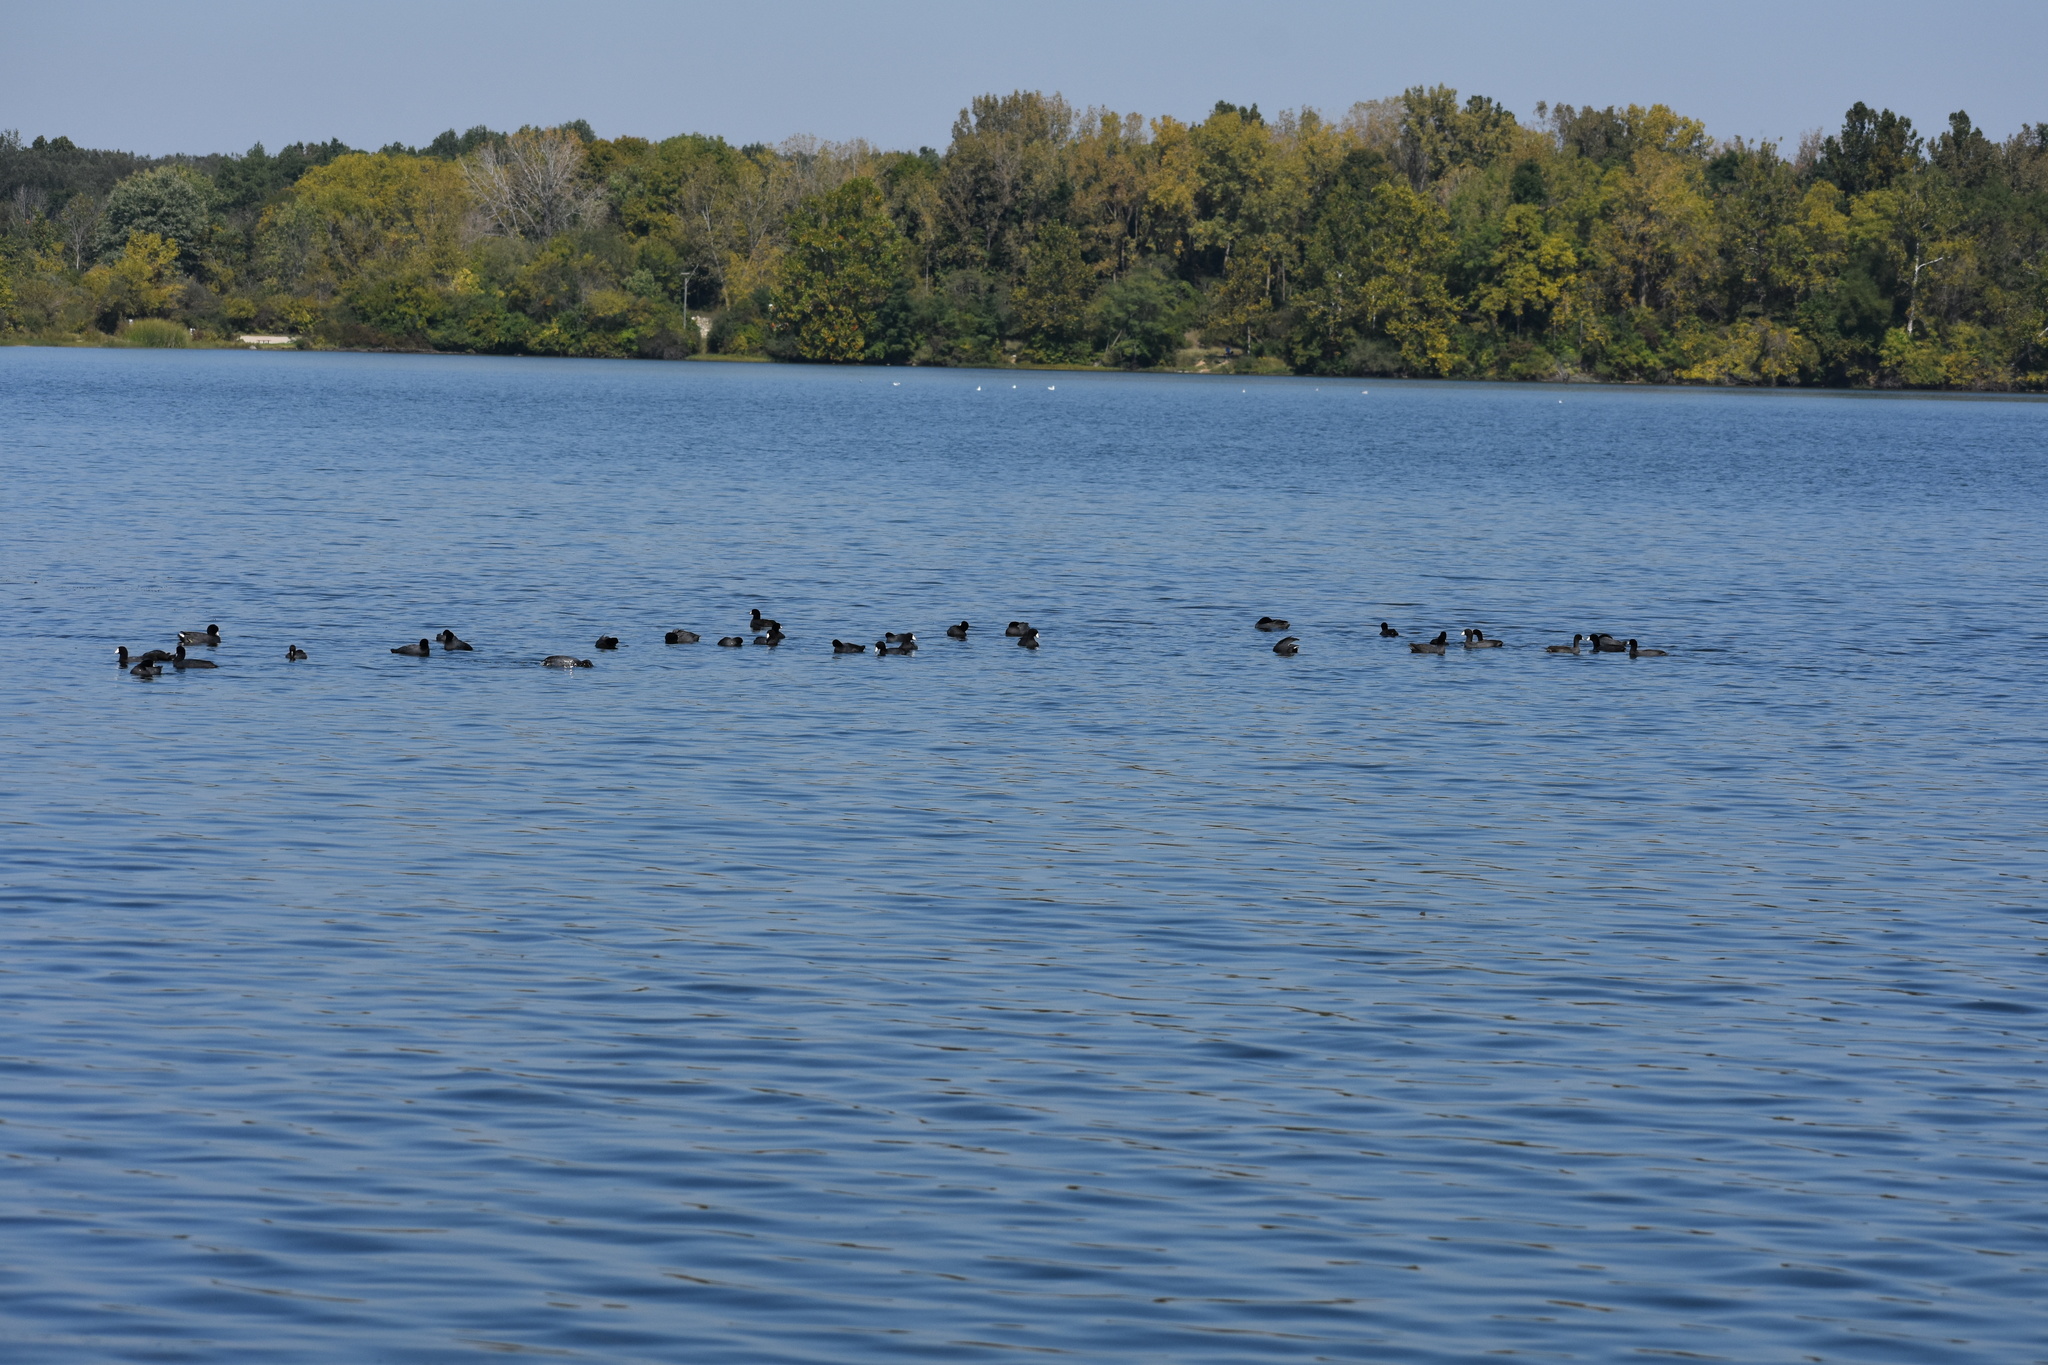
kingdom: Animalia
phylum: Chordata
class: Aves
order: Gruiformes
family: Rallidae
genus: Fulica
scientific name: Fulica americana
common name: American coot
